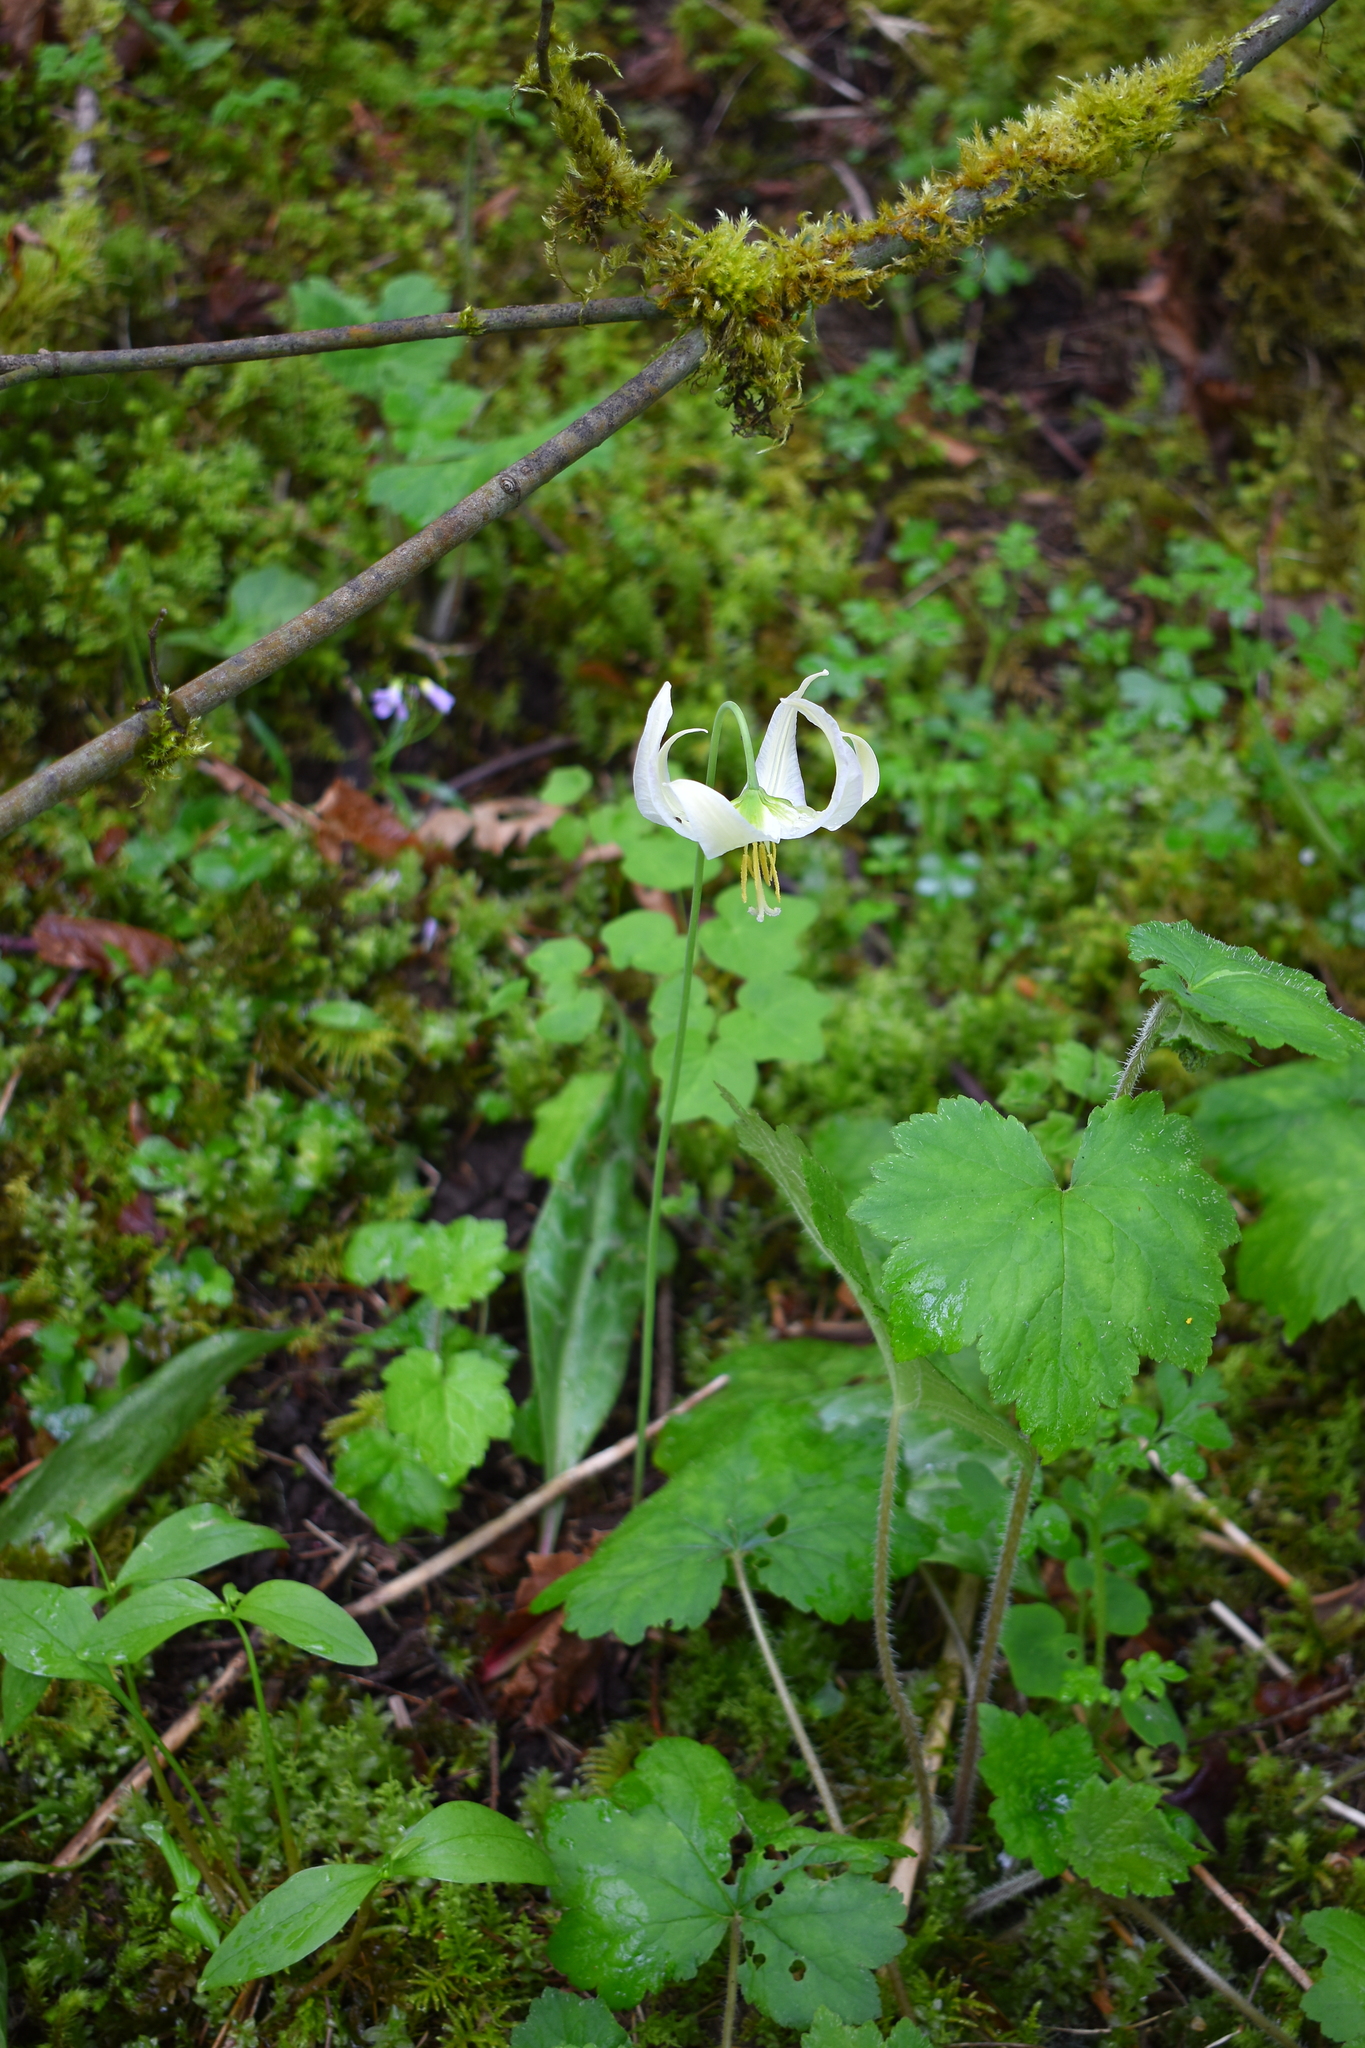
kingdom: Plantae
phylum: Tracheophyta
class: Liliopsida
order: Liliales
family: Liliaceae
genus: Erythronium
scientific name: Erythronium oregonum
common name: Giant adder's-tongue
